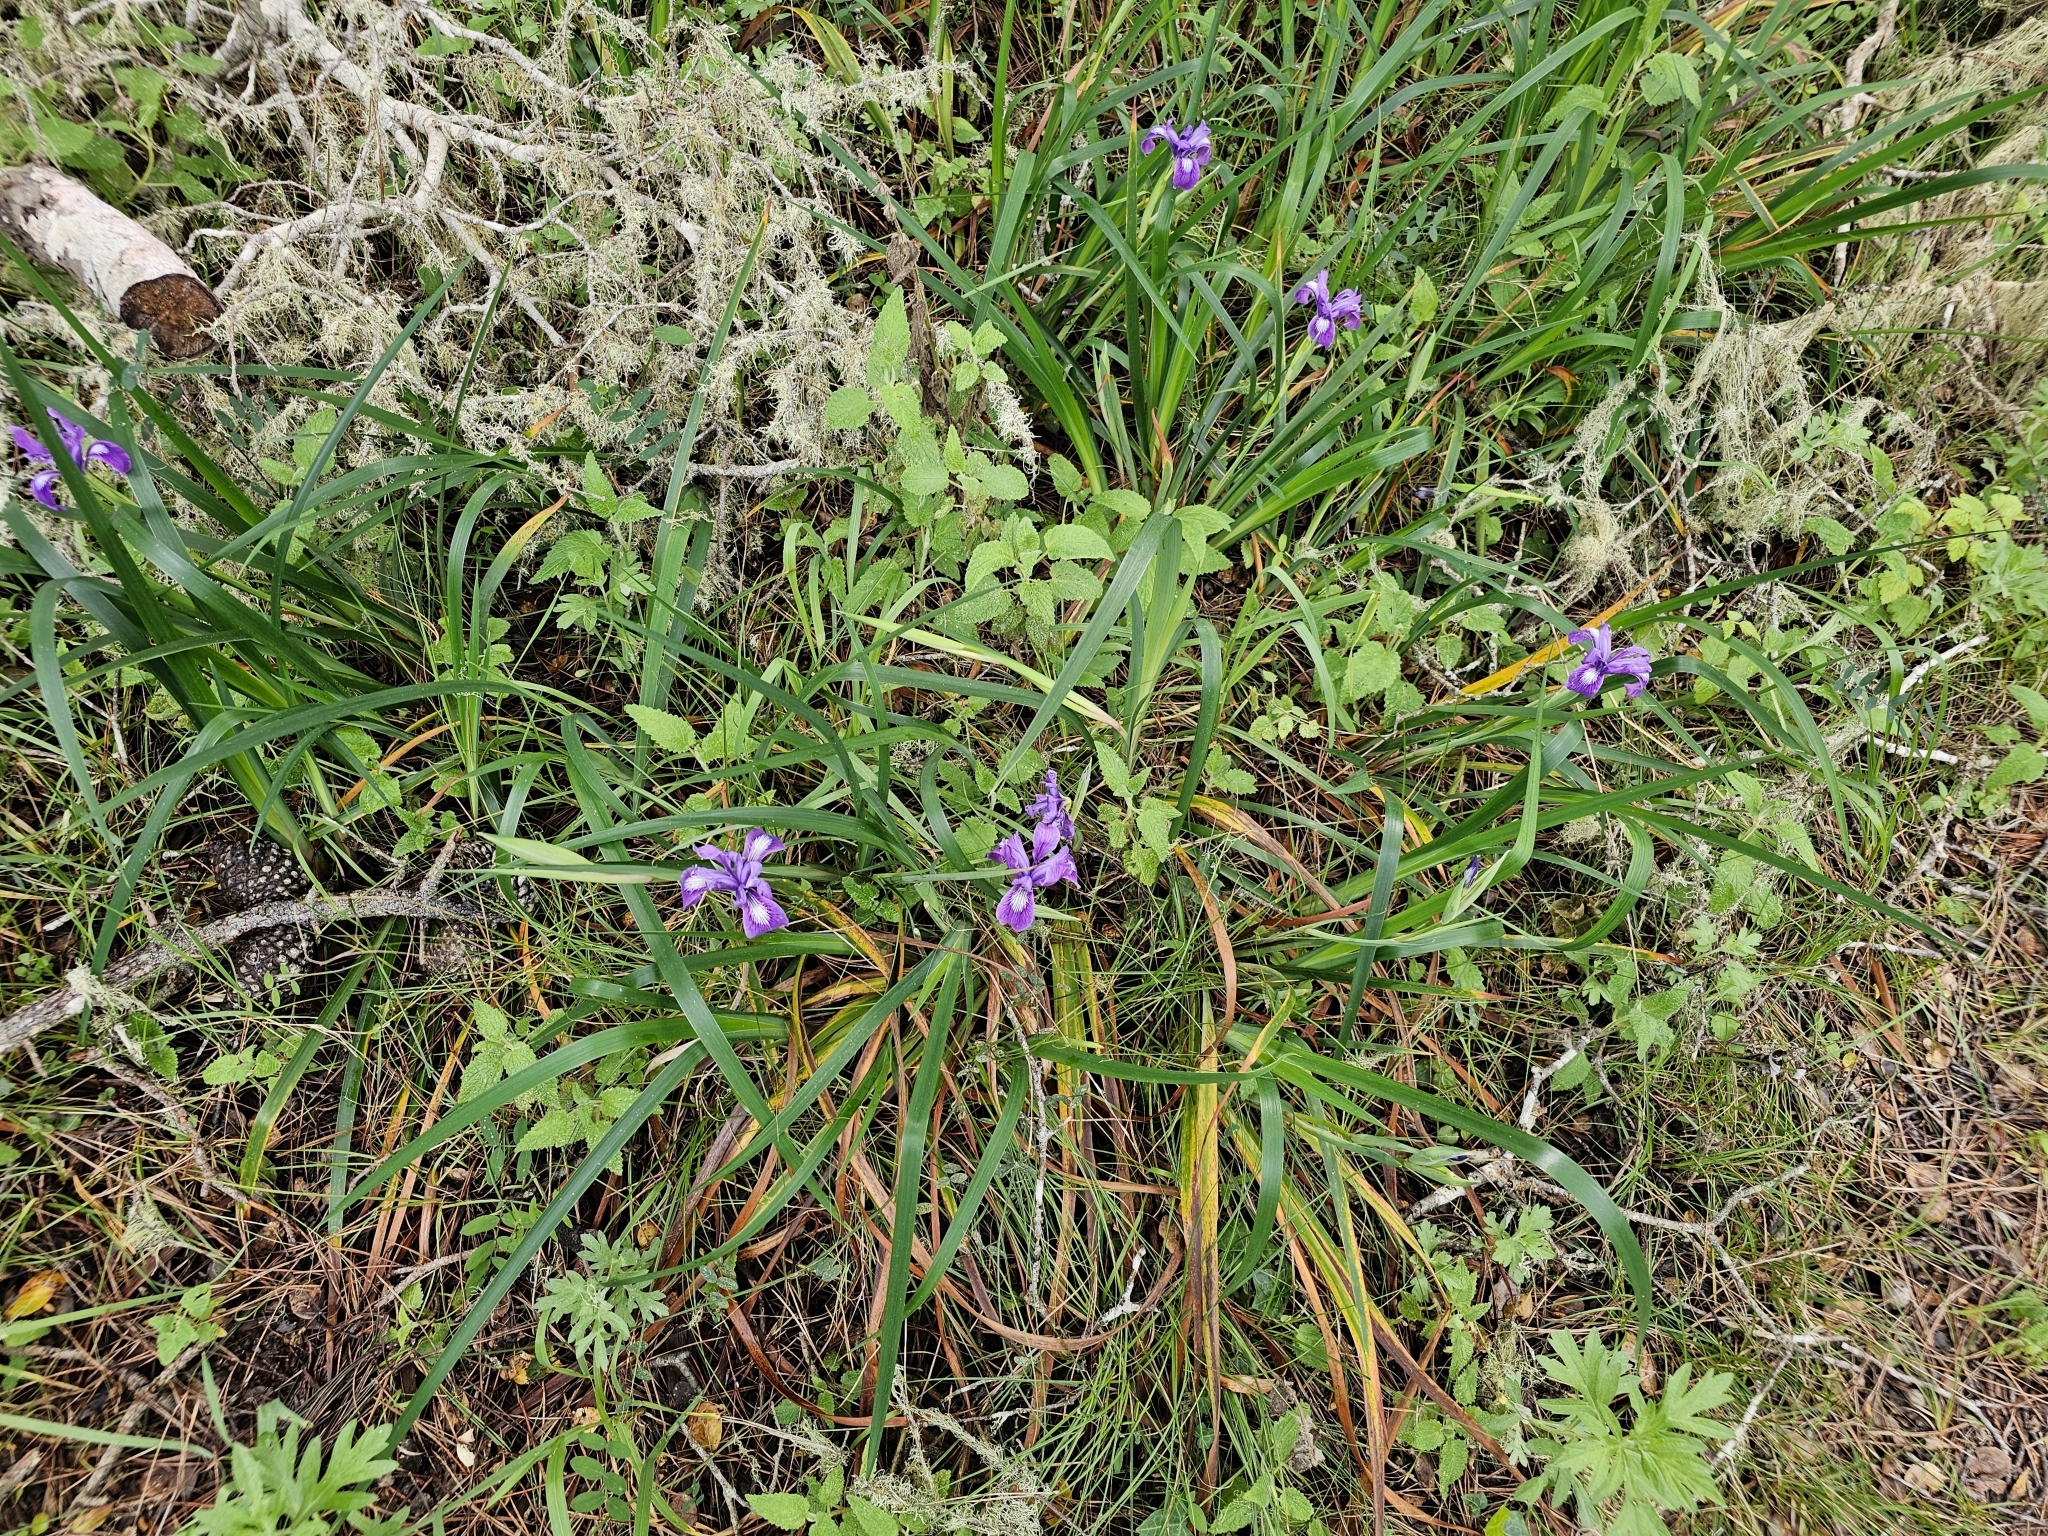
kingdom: Plantae
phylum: Tracheophyta
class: Liliopsida
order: Asparagales
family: Iridaceae
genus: Iris
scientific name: Iris douglasiana
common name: Marin iris
